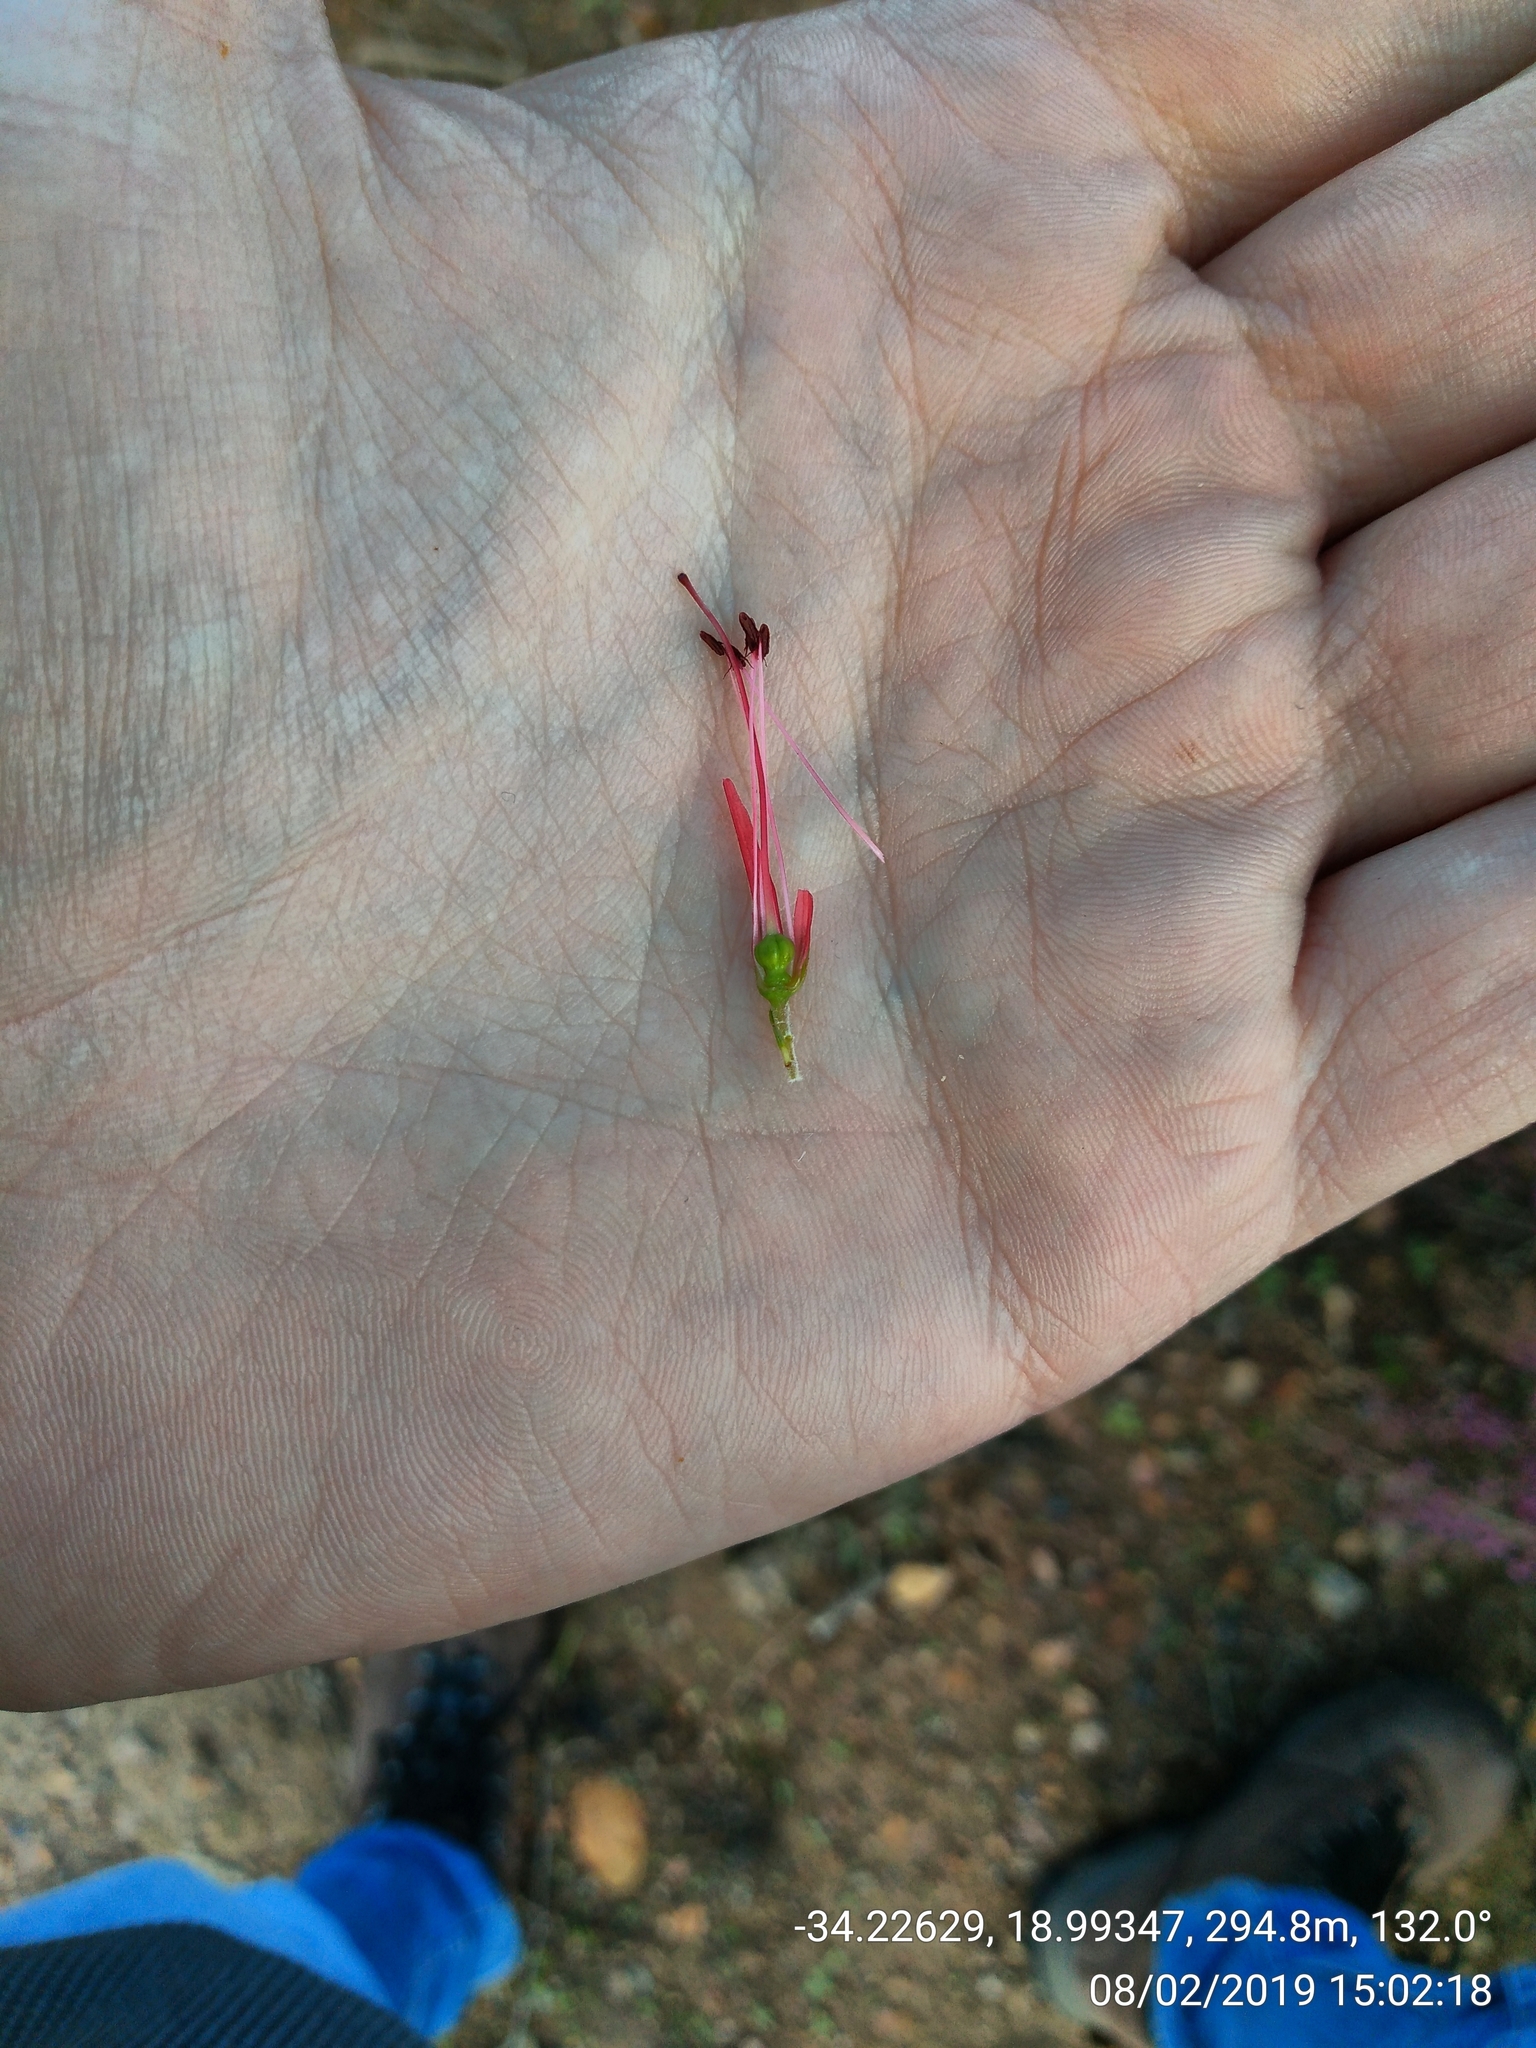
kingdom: Plantae
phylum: Tracheophyta
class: Magnoliopsida
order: Ericales
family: Ericaceae
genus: Erica
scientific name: Erica cruenta
